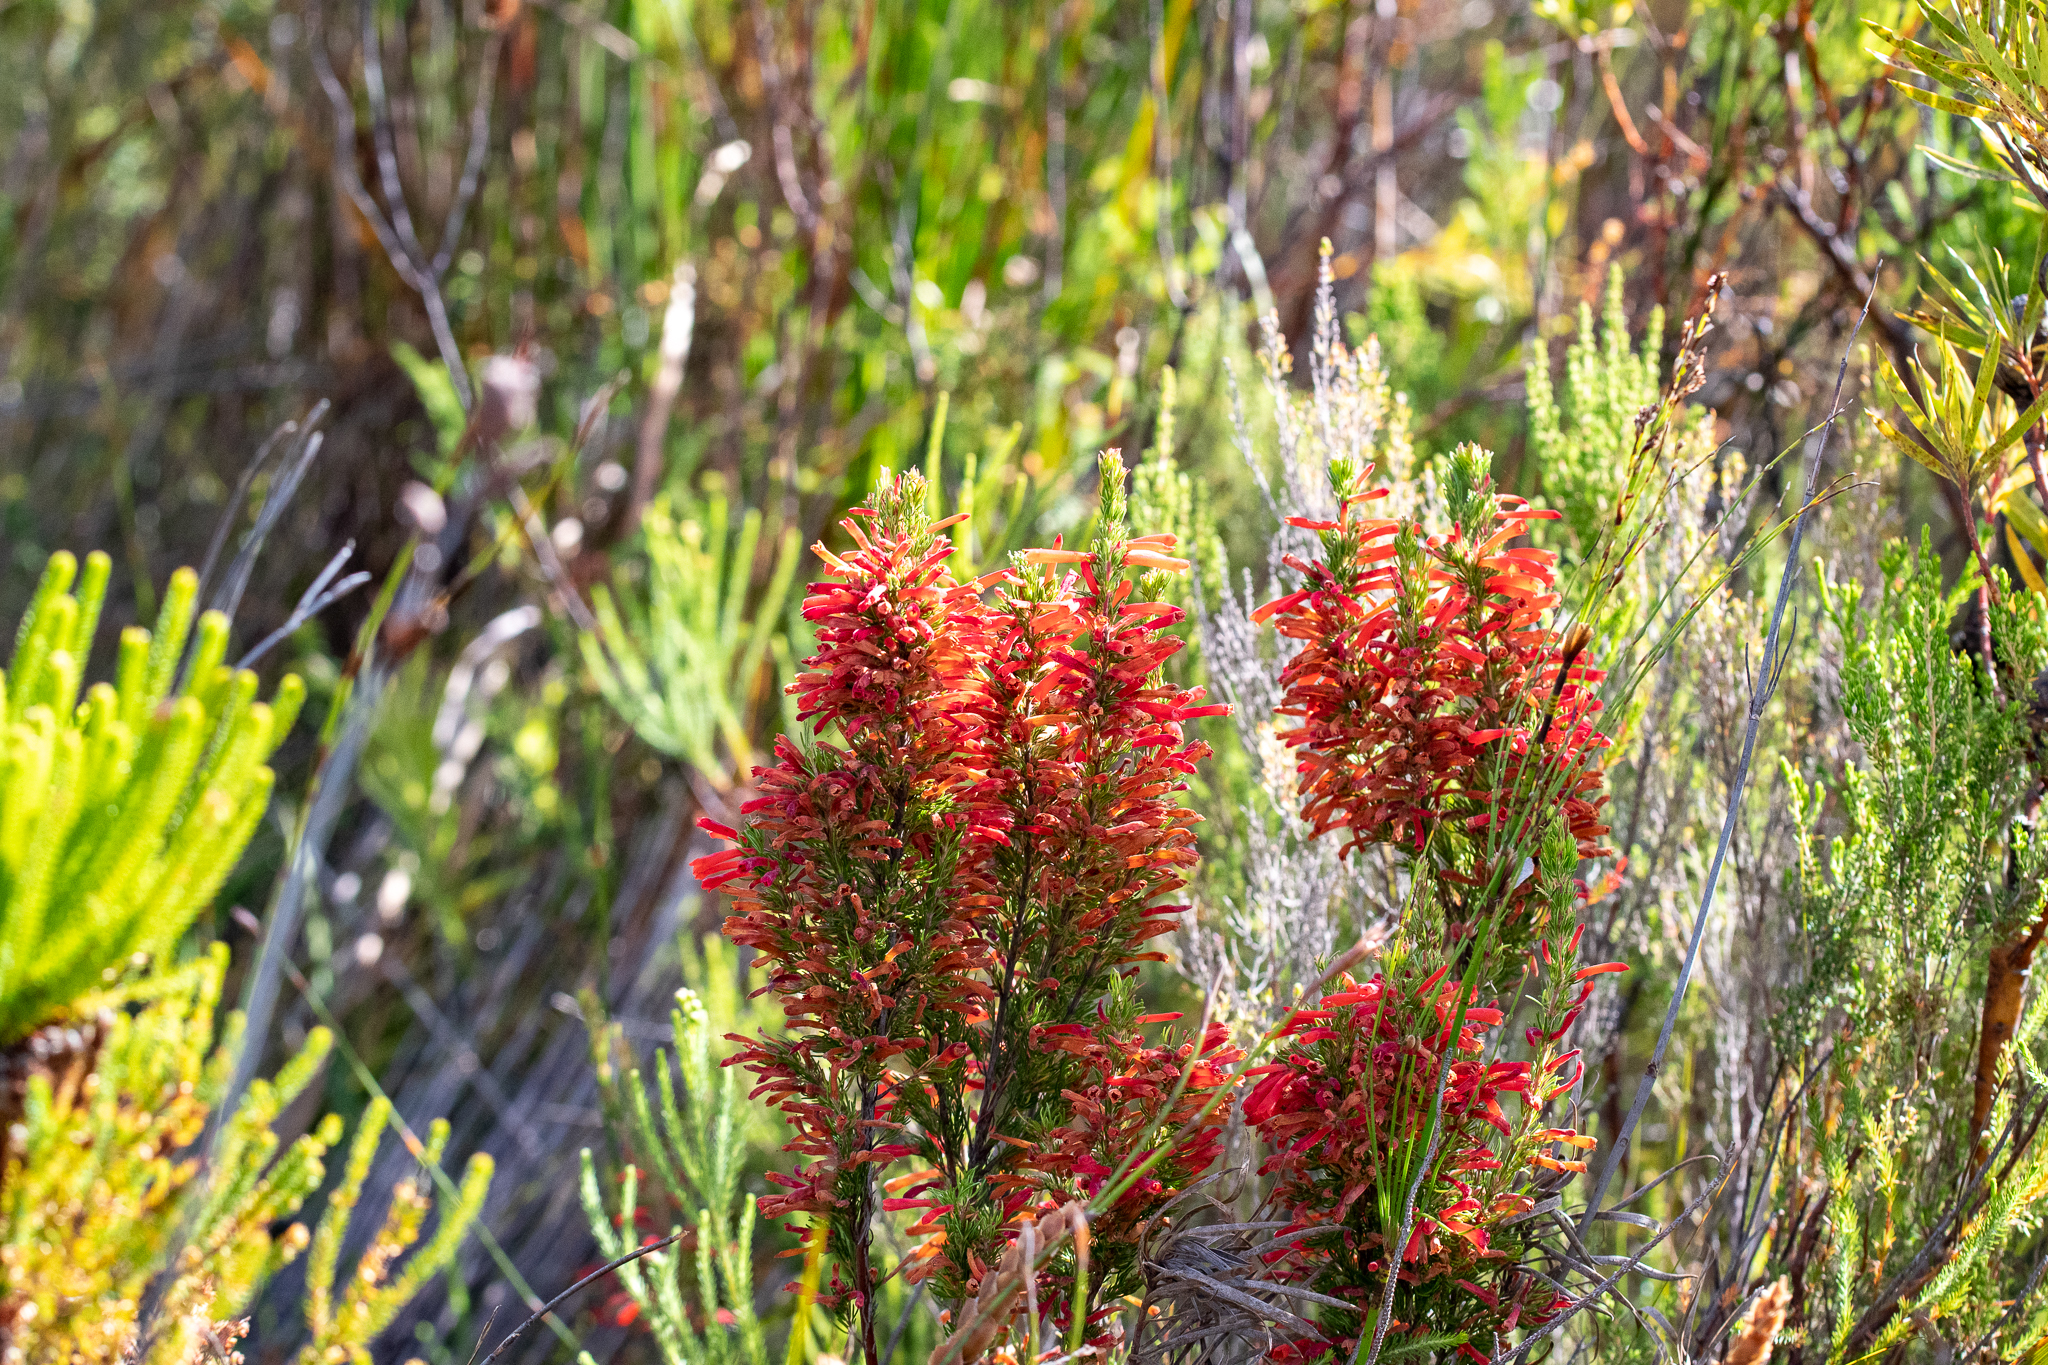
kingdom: Plantae
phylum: Tracheophyta
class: Magnoliopsida
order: Ericales
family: Ericaceae
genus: Erica
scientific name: Erica pillansii
